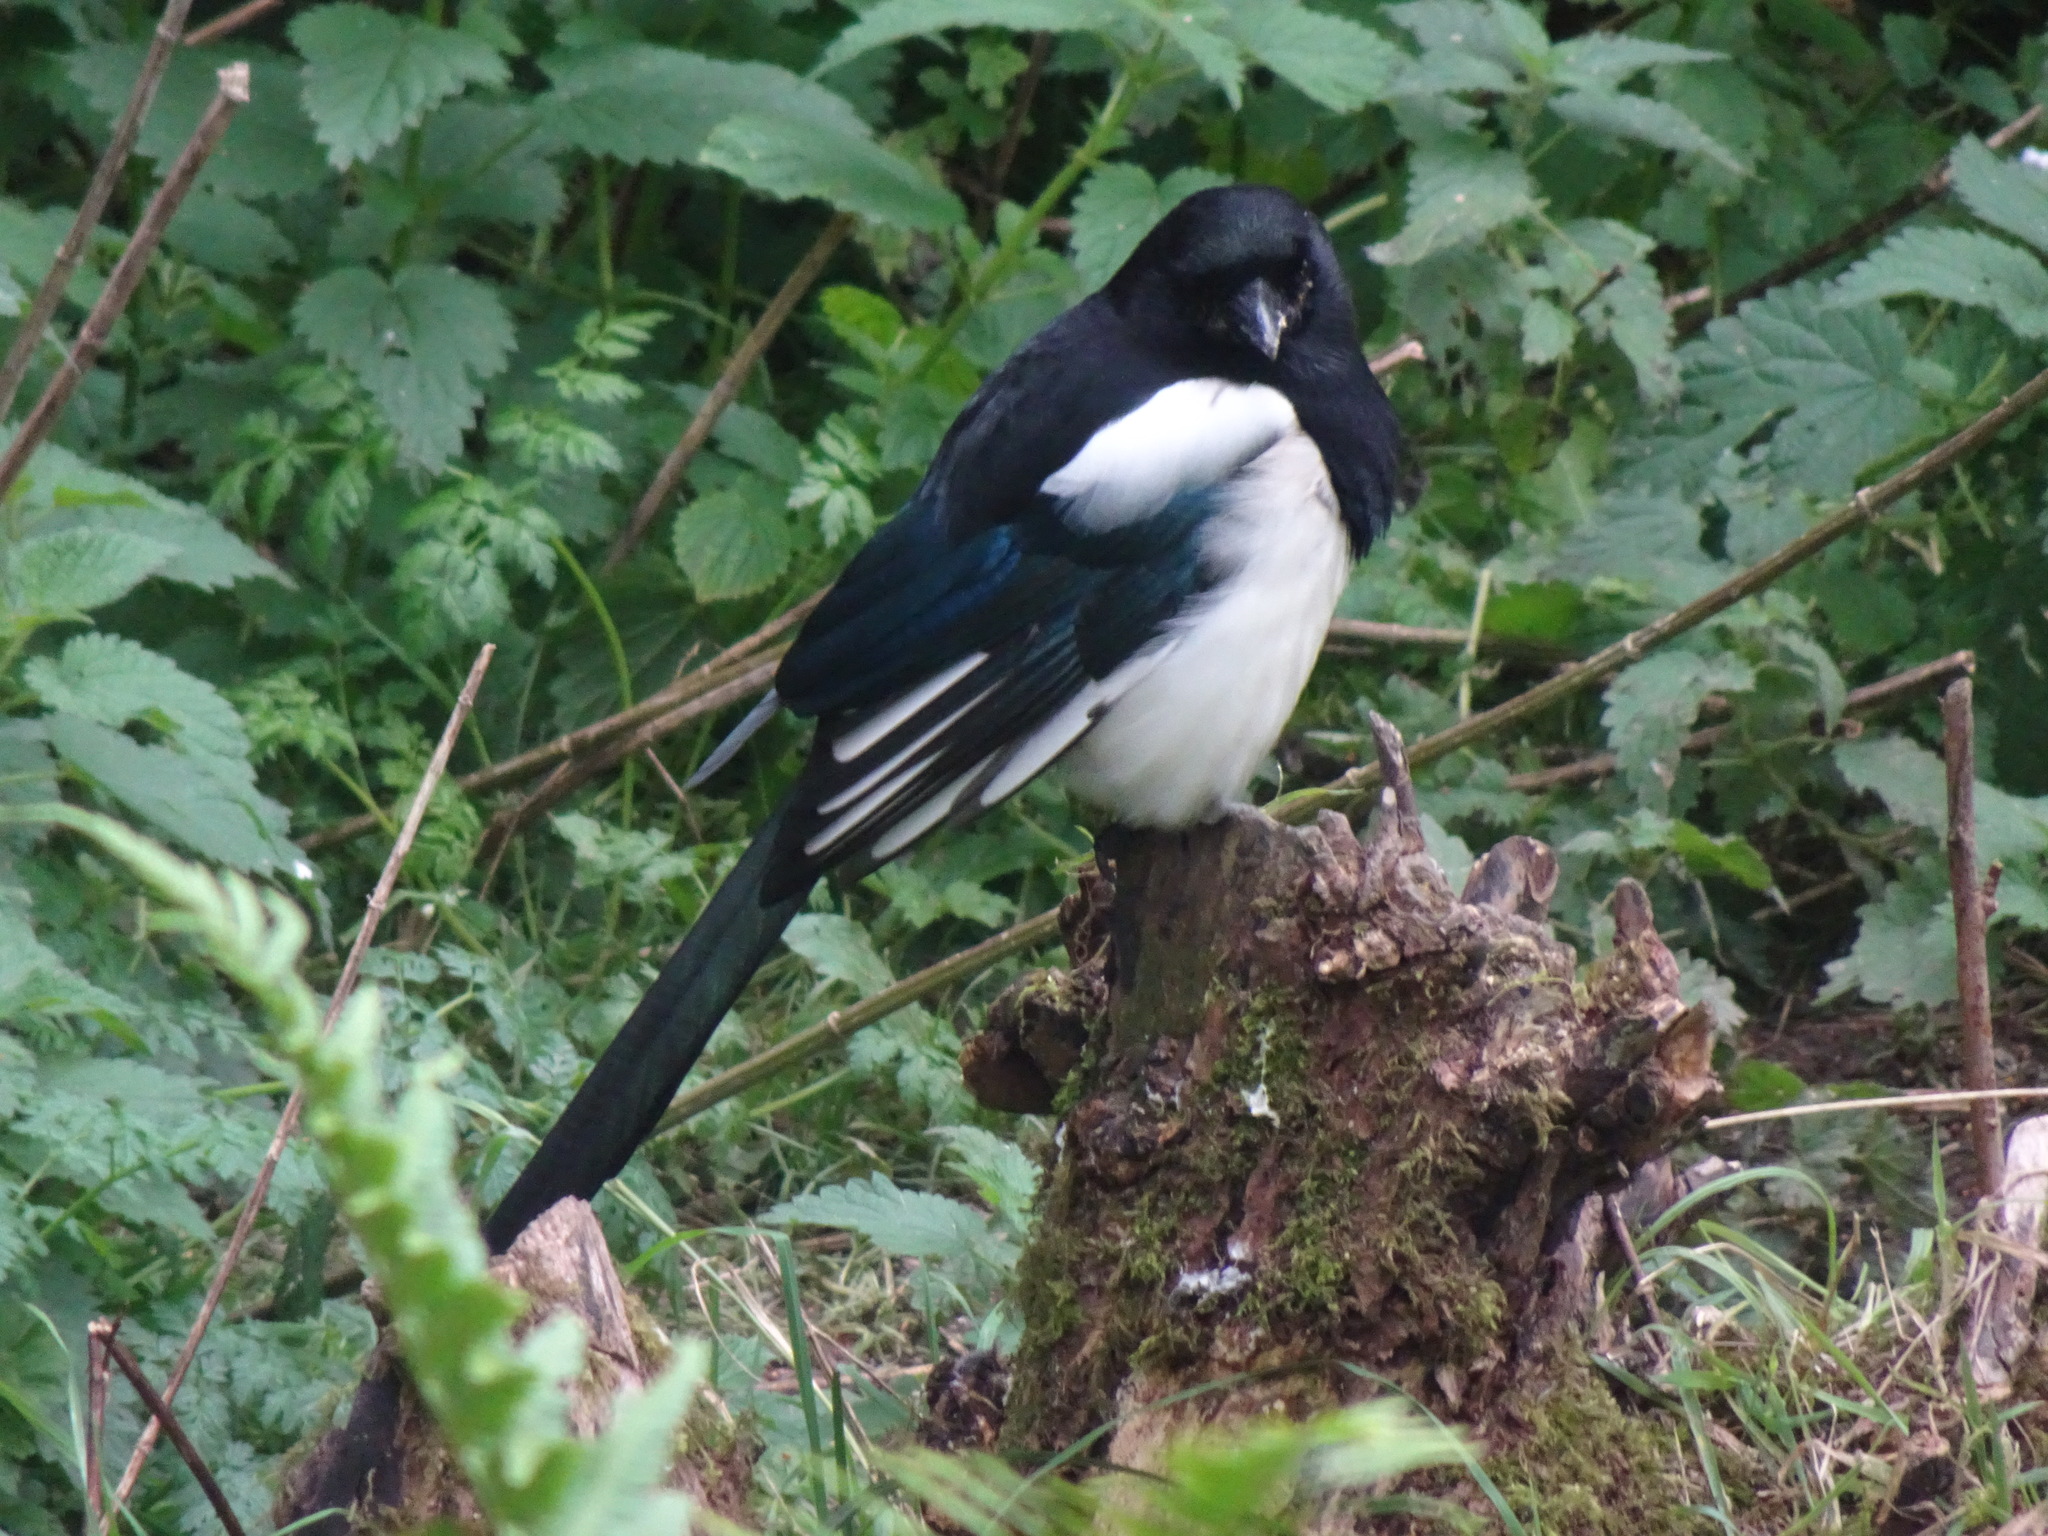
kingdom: Animalia
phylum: Chordata
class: Aves
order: Passeriformes
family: Corvidae
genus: Pica
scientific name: Pica pica
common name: Eurasian magpie
